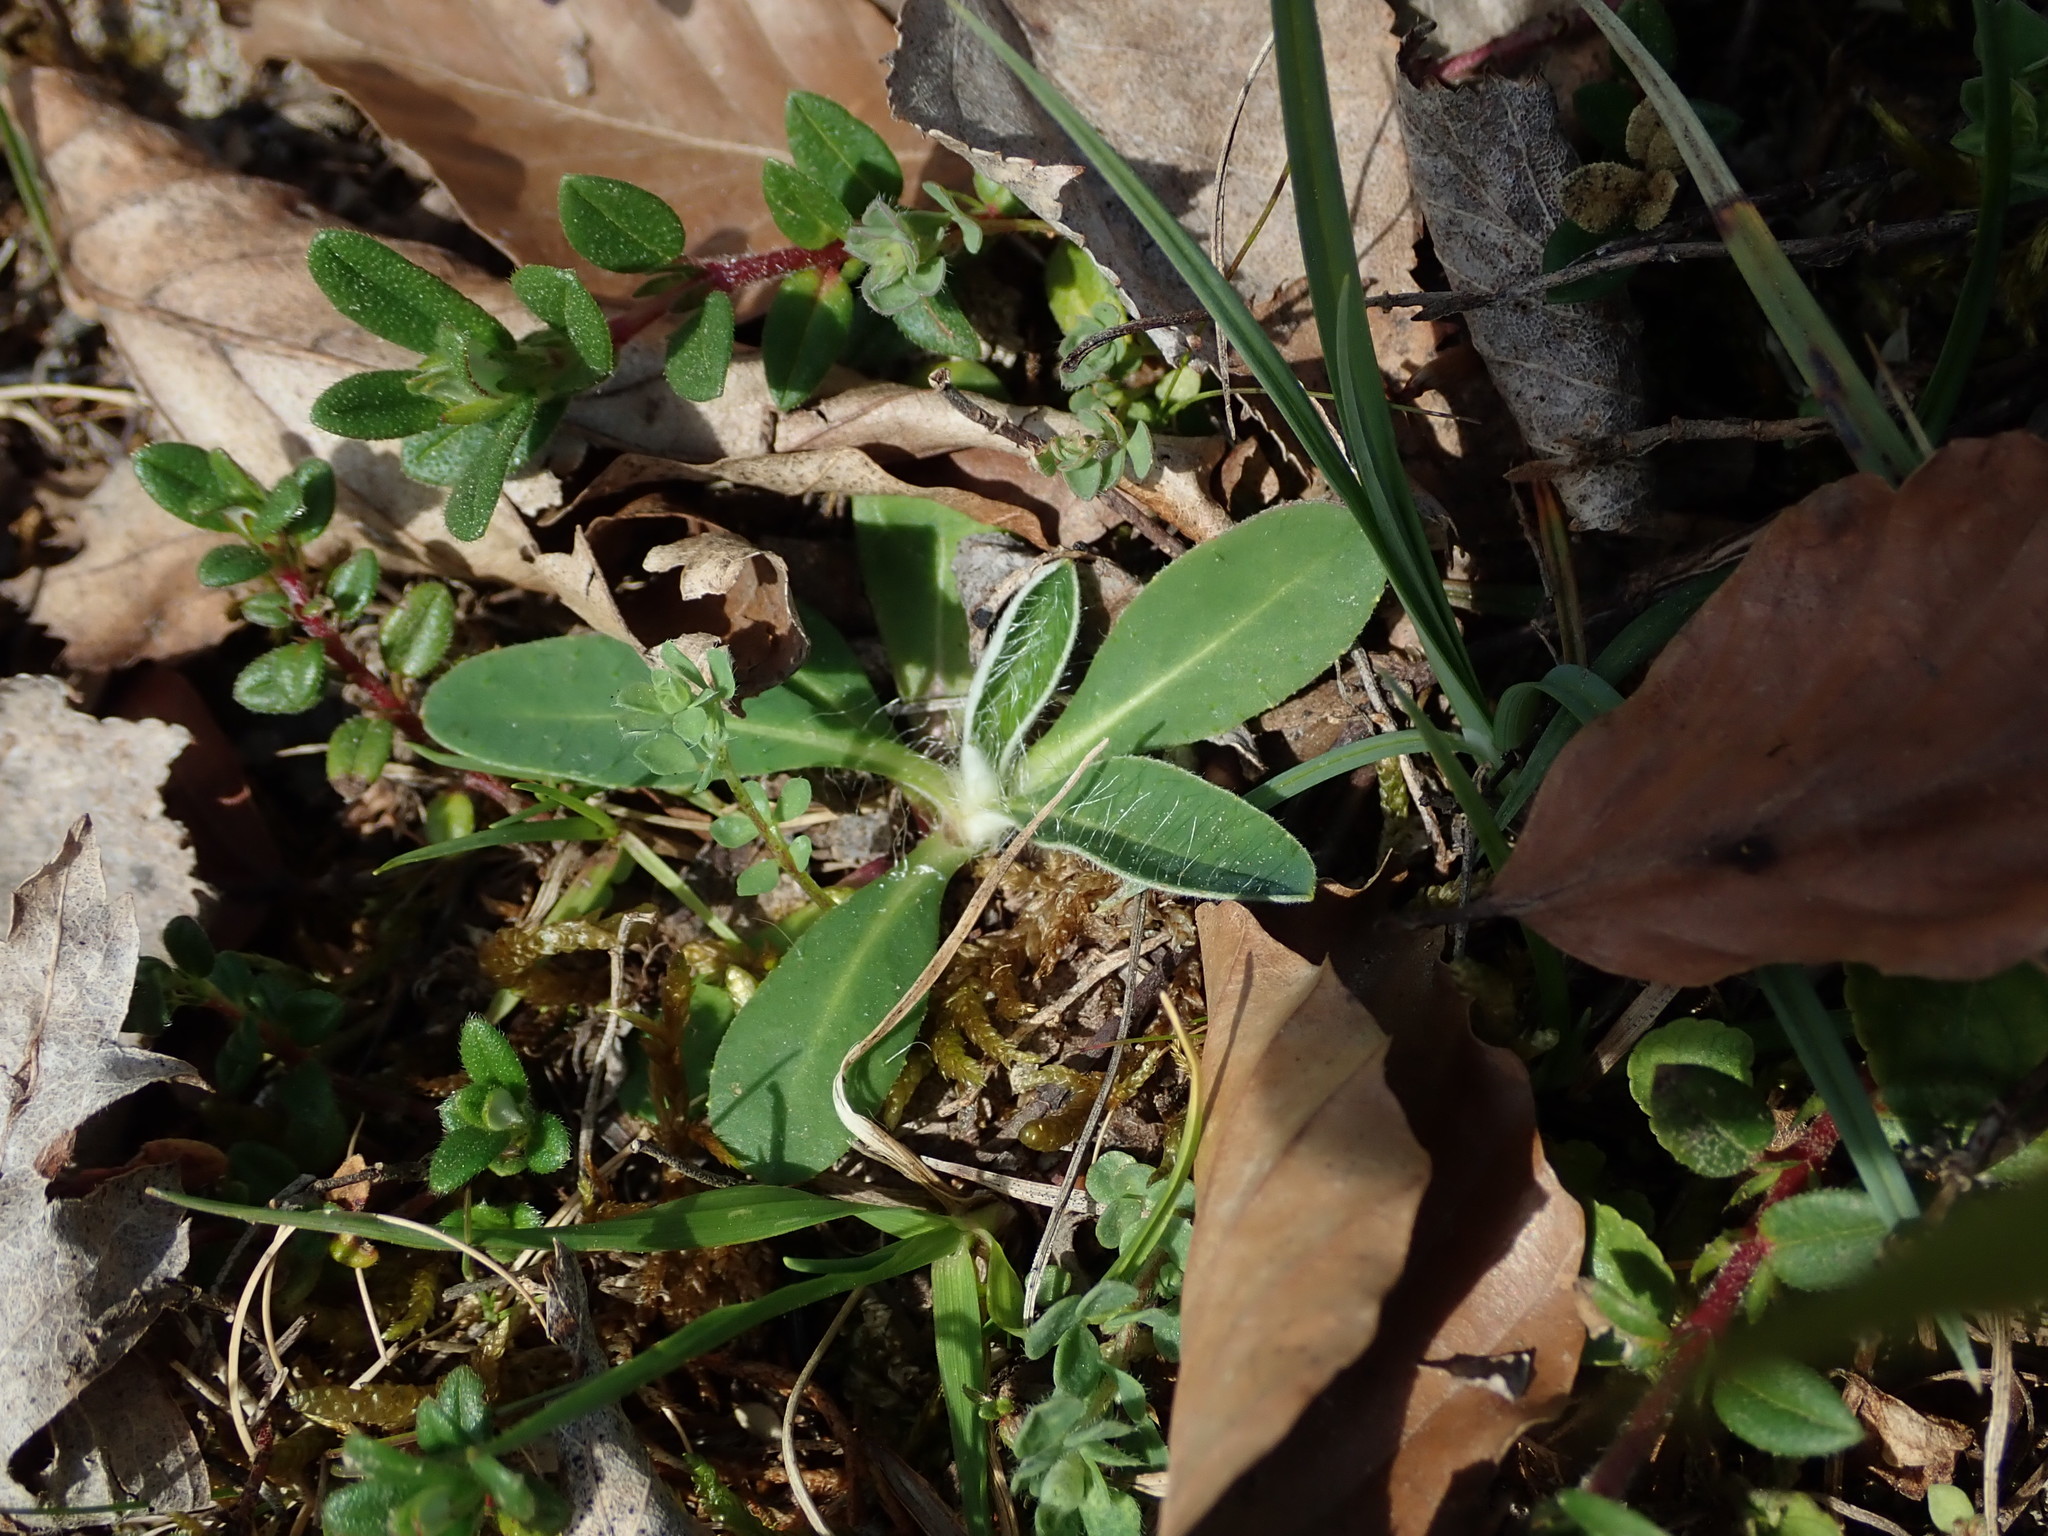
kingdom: Plantae
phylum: Tracheophyta
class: Magnoliopsida
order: Asterales
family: Asteraceae
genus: Pilosella
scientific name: Pilosella officinarum
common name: Mouse-ear hawkweed
